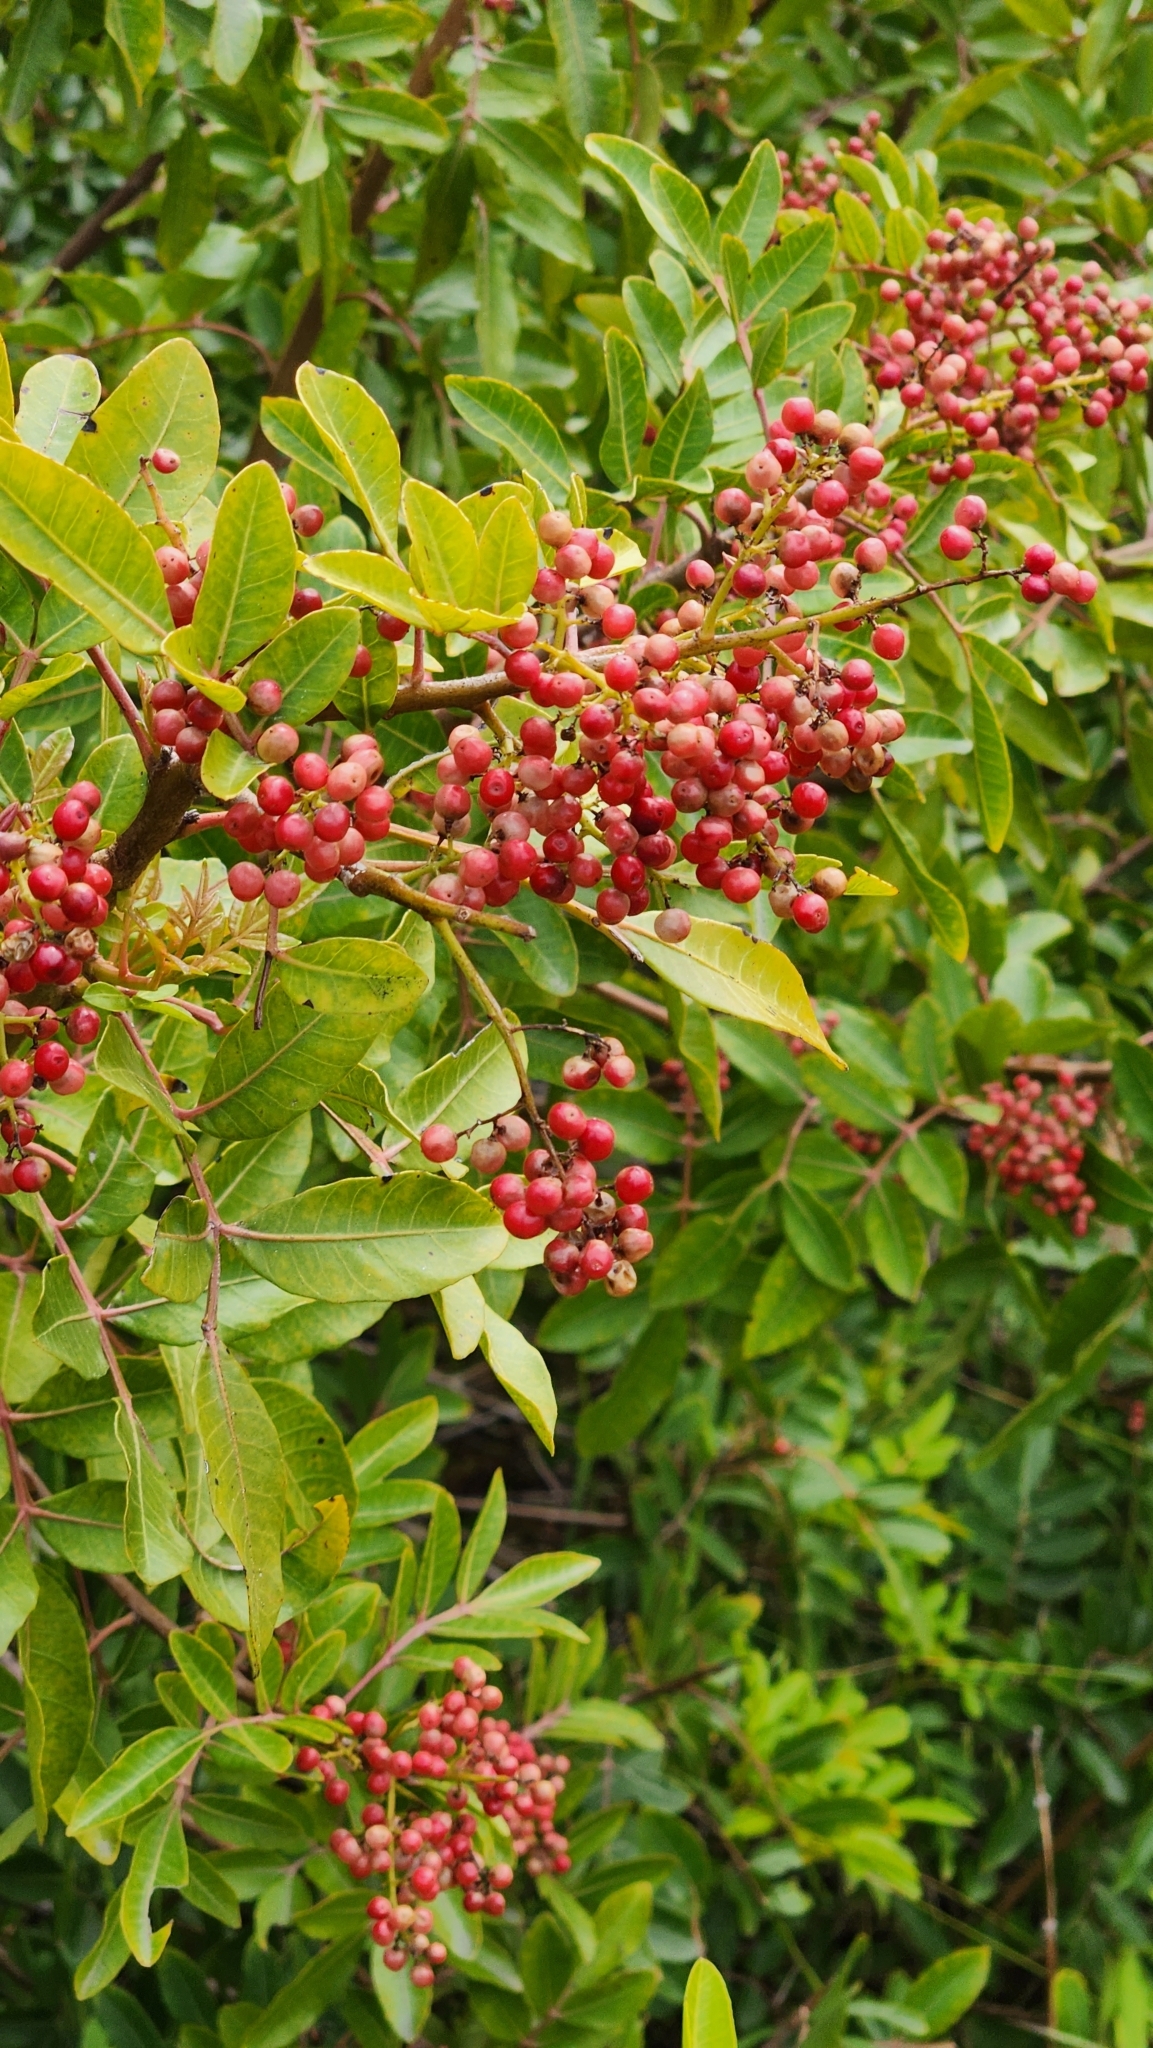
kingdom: Plantae
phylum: Tracheophyta
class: Magnoliopsida
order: Sapindales
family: Anacardiaceae
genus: Schinus
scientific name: Schinus terebinthifolia
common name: Brazilian peppertree
